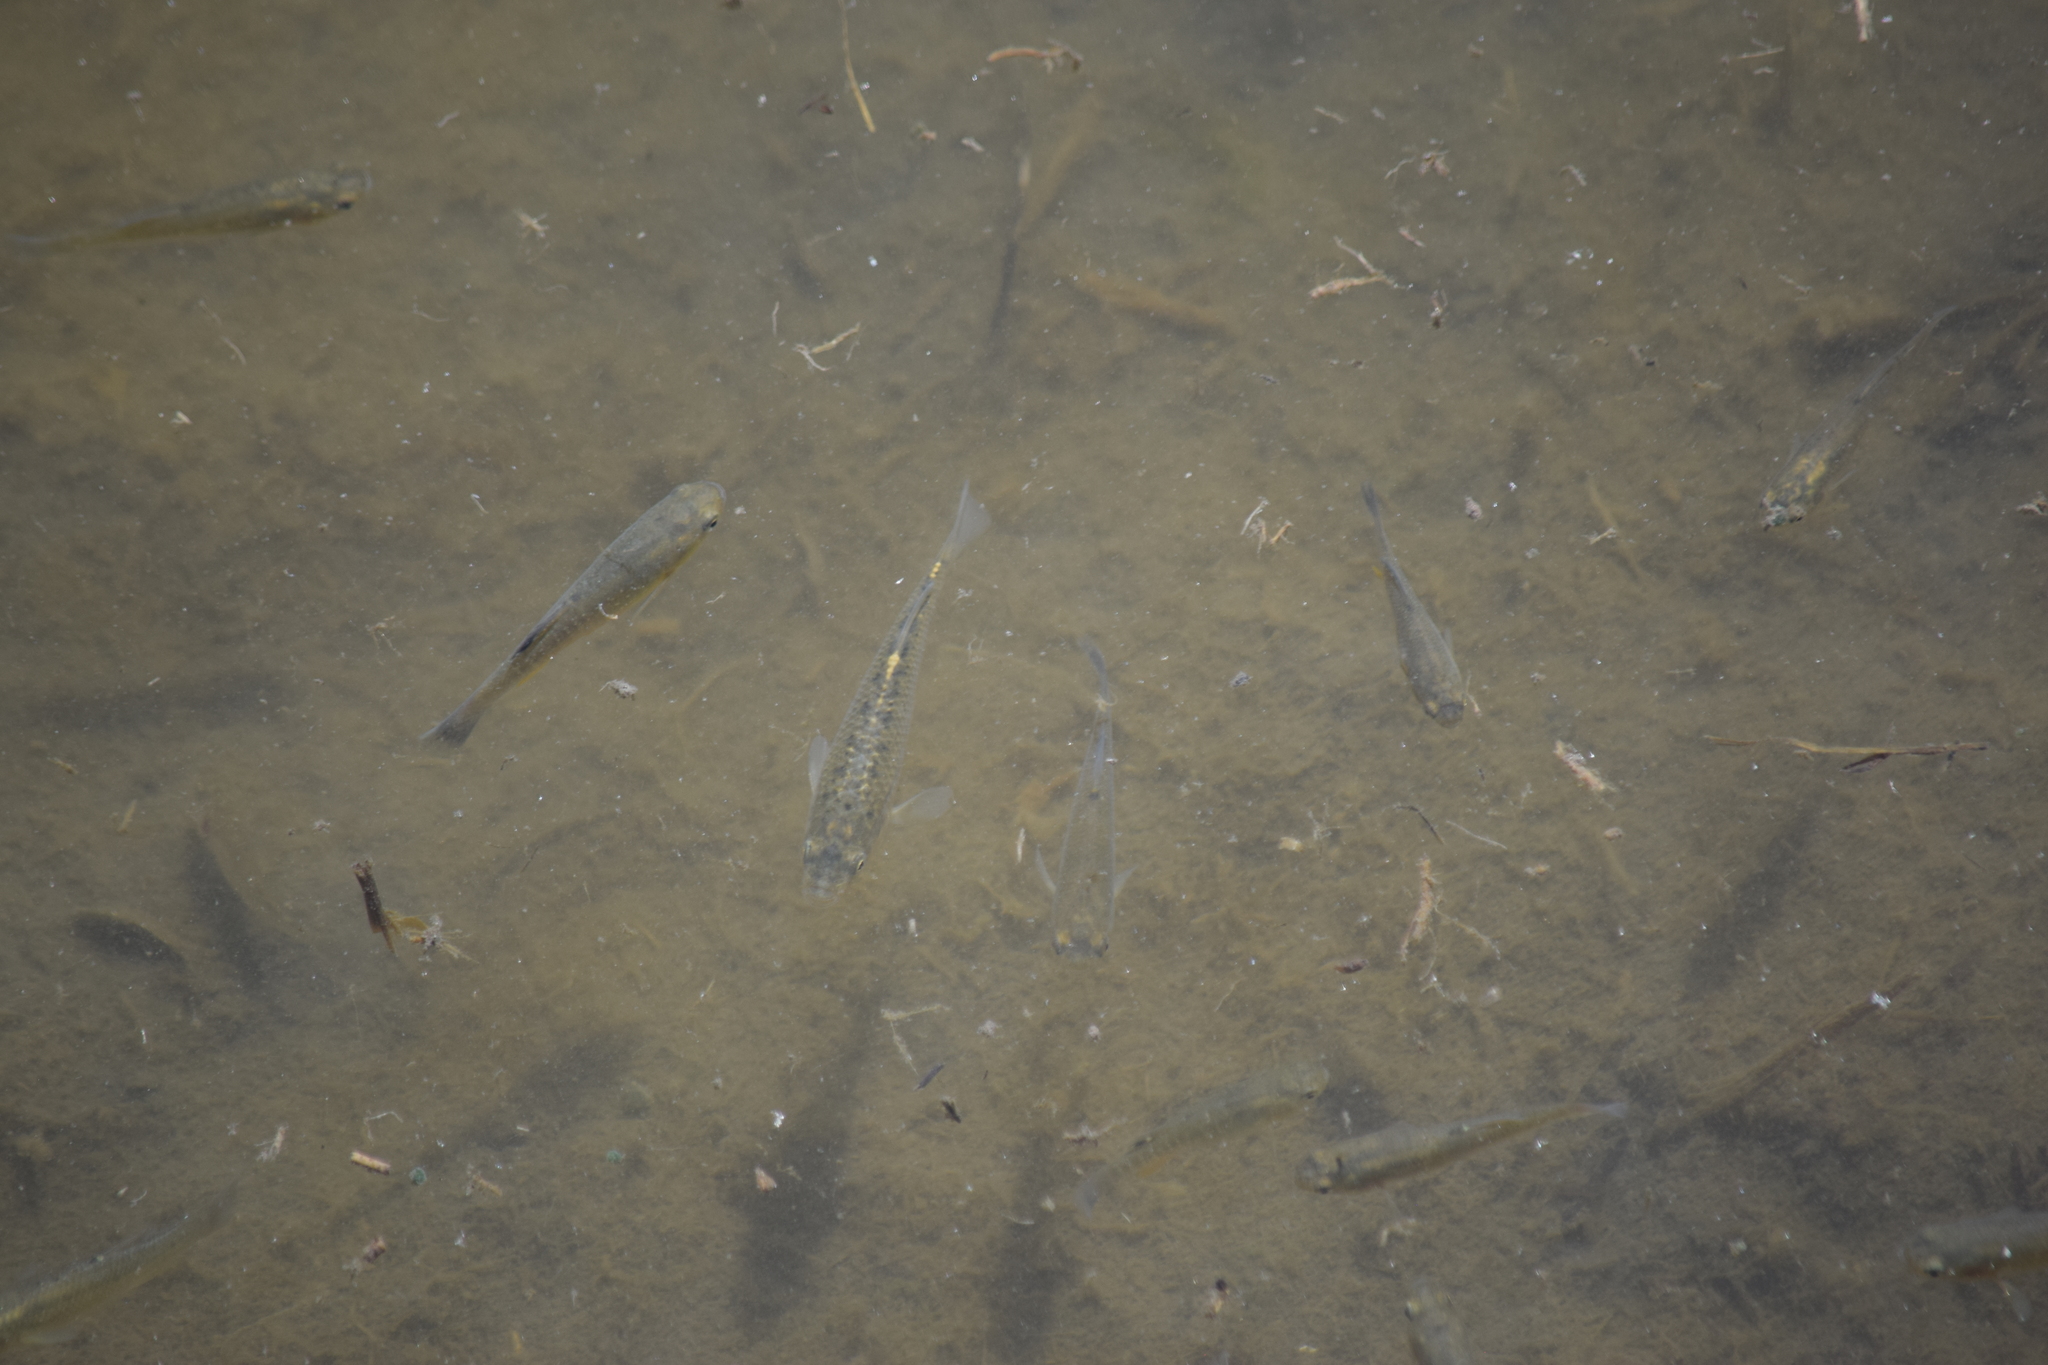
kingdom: Animalia
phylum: Chordata
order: Cyprinodontiformes
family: Fundulidae
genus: Fundulus
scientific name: Fundulus heteroclitus
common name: Mummichog
